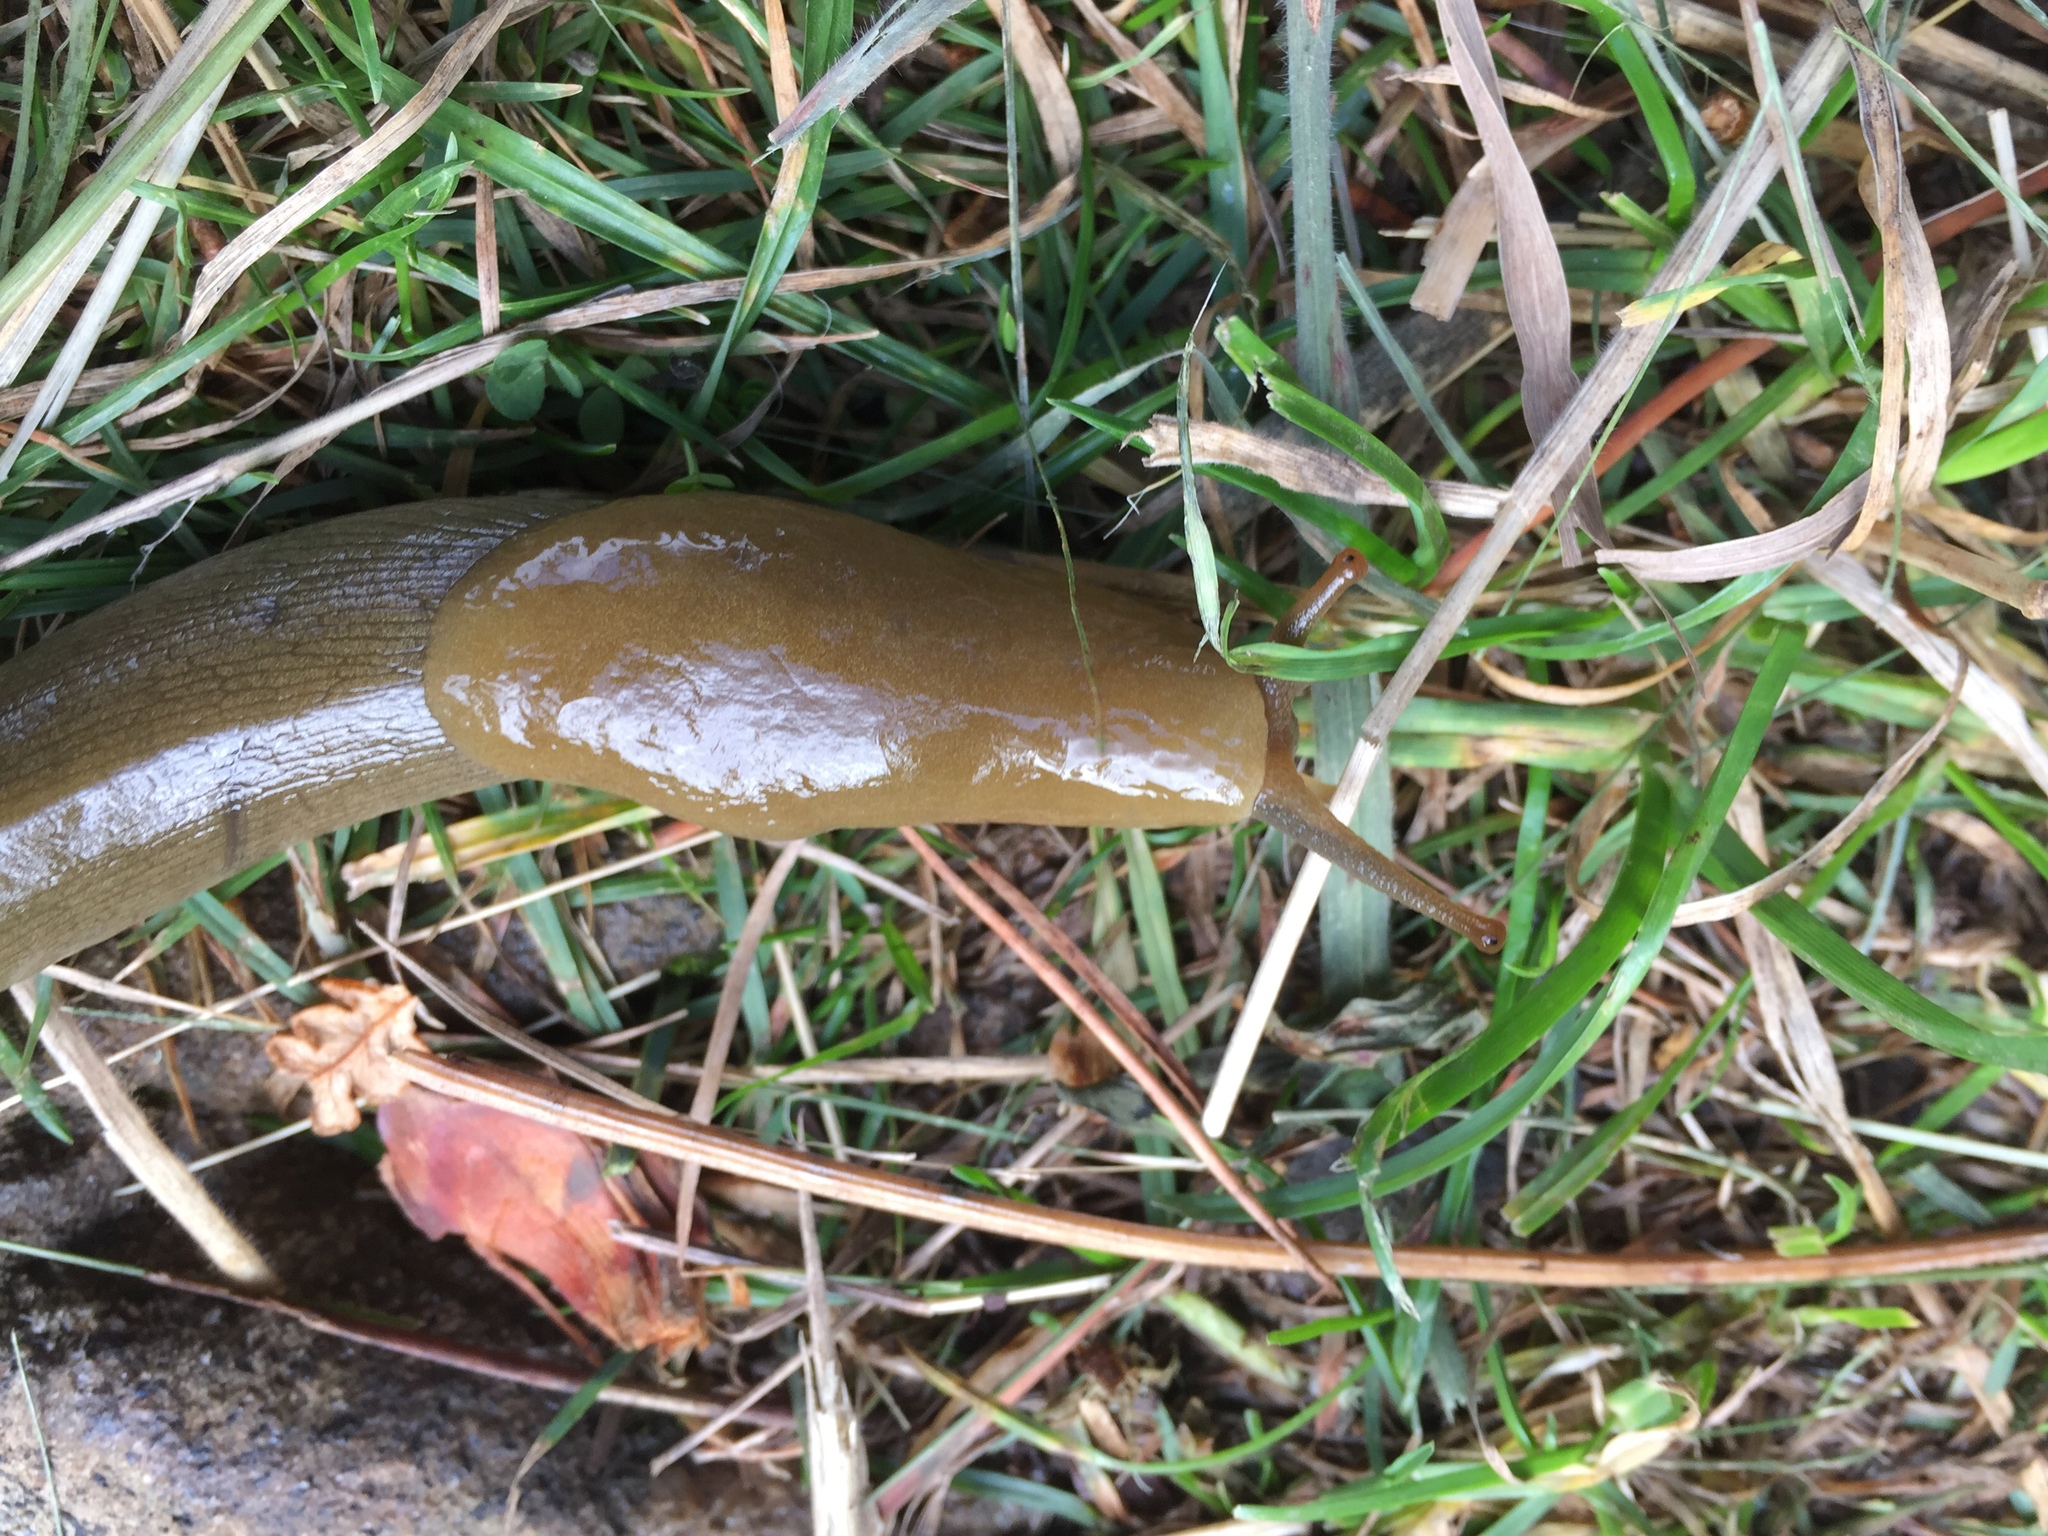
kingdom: Animalia
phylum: Mollusca
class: Gastropoda
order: Stylommatophora
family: Ariolimacidae
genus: Ariolimax
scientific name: Ariolimax buttoni
